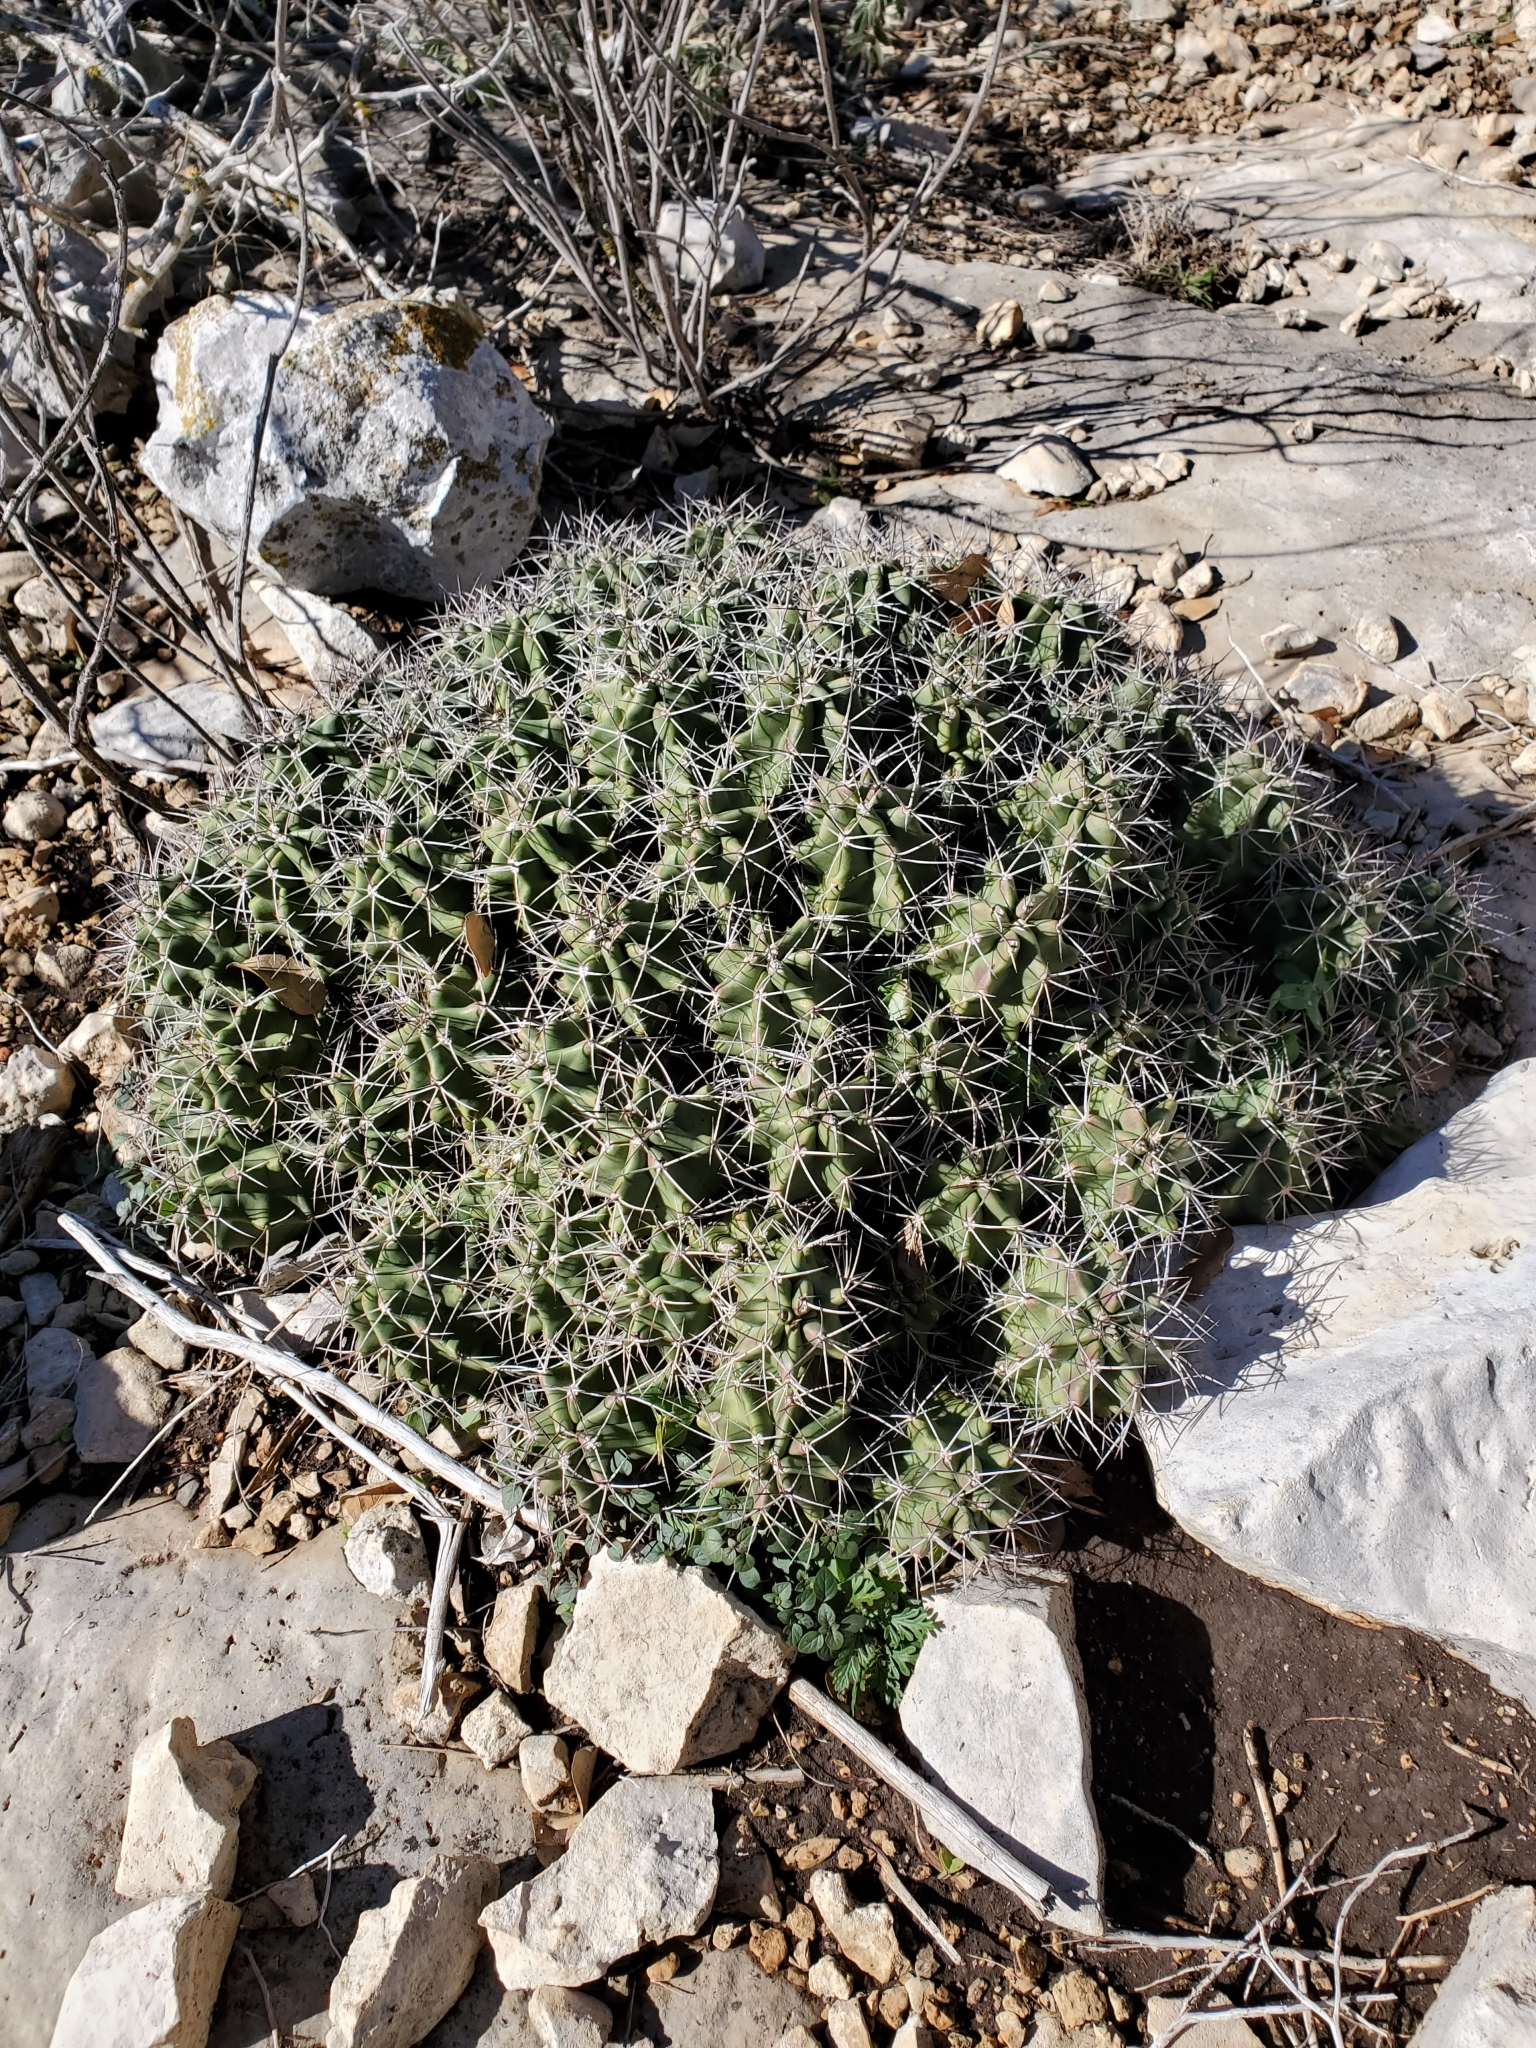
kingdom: Plantae
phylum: Tracheophyta
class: Magnoliopsida
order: Caryophyllales
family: Cactaceae
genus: Echinocereus
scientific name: Echinocereus coccineus
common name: Scarlet hedgehog cactus
